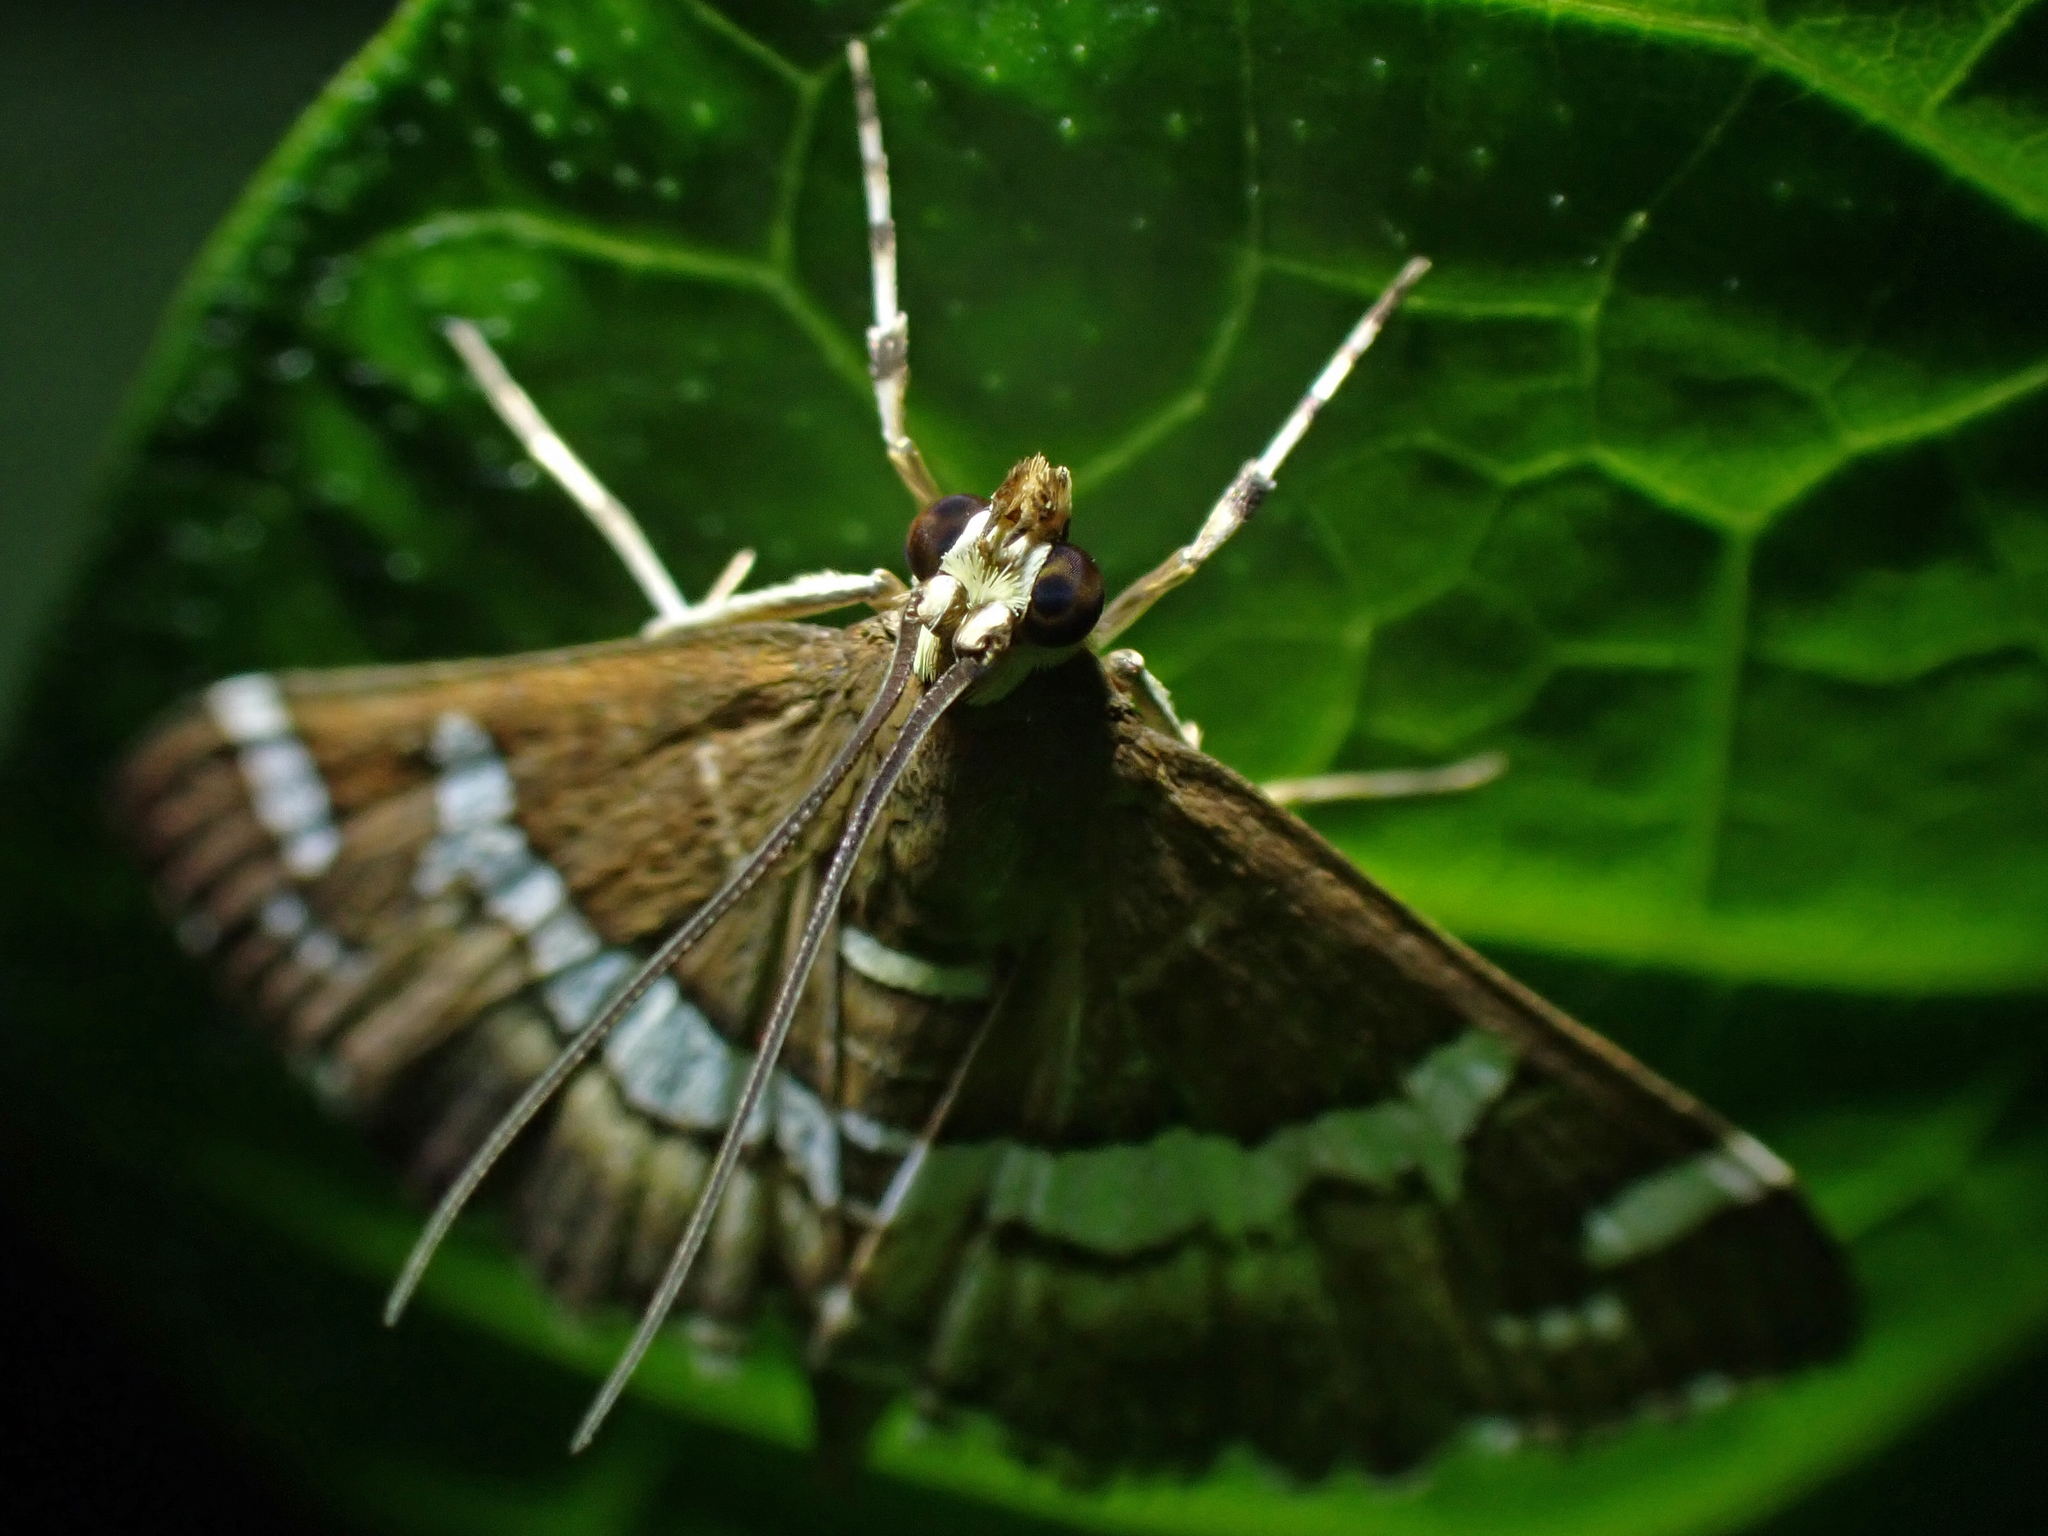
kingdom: Animalia
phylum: Arthropoda
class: Insecta
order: Lepidoptera
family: Crambidae
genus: Spoladea
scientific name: Spoladea recurvalis
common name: Beet webworm moth
